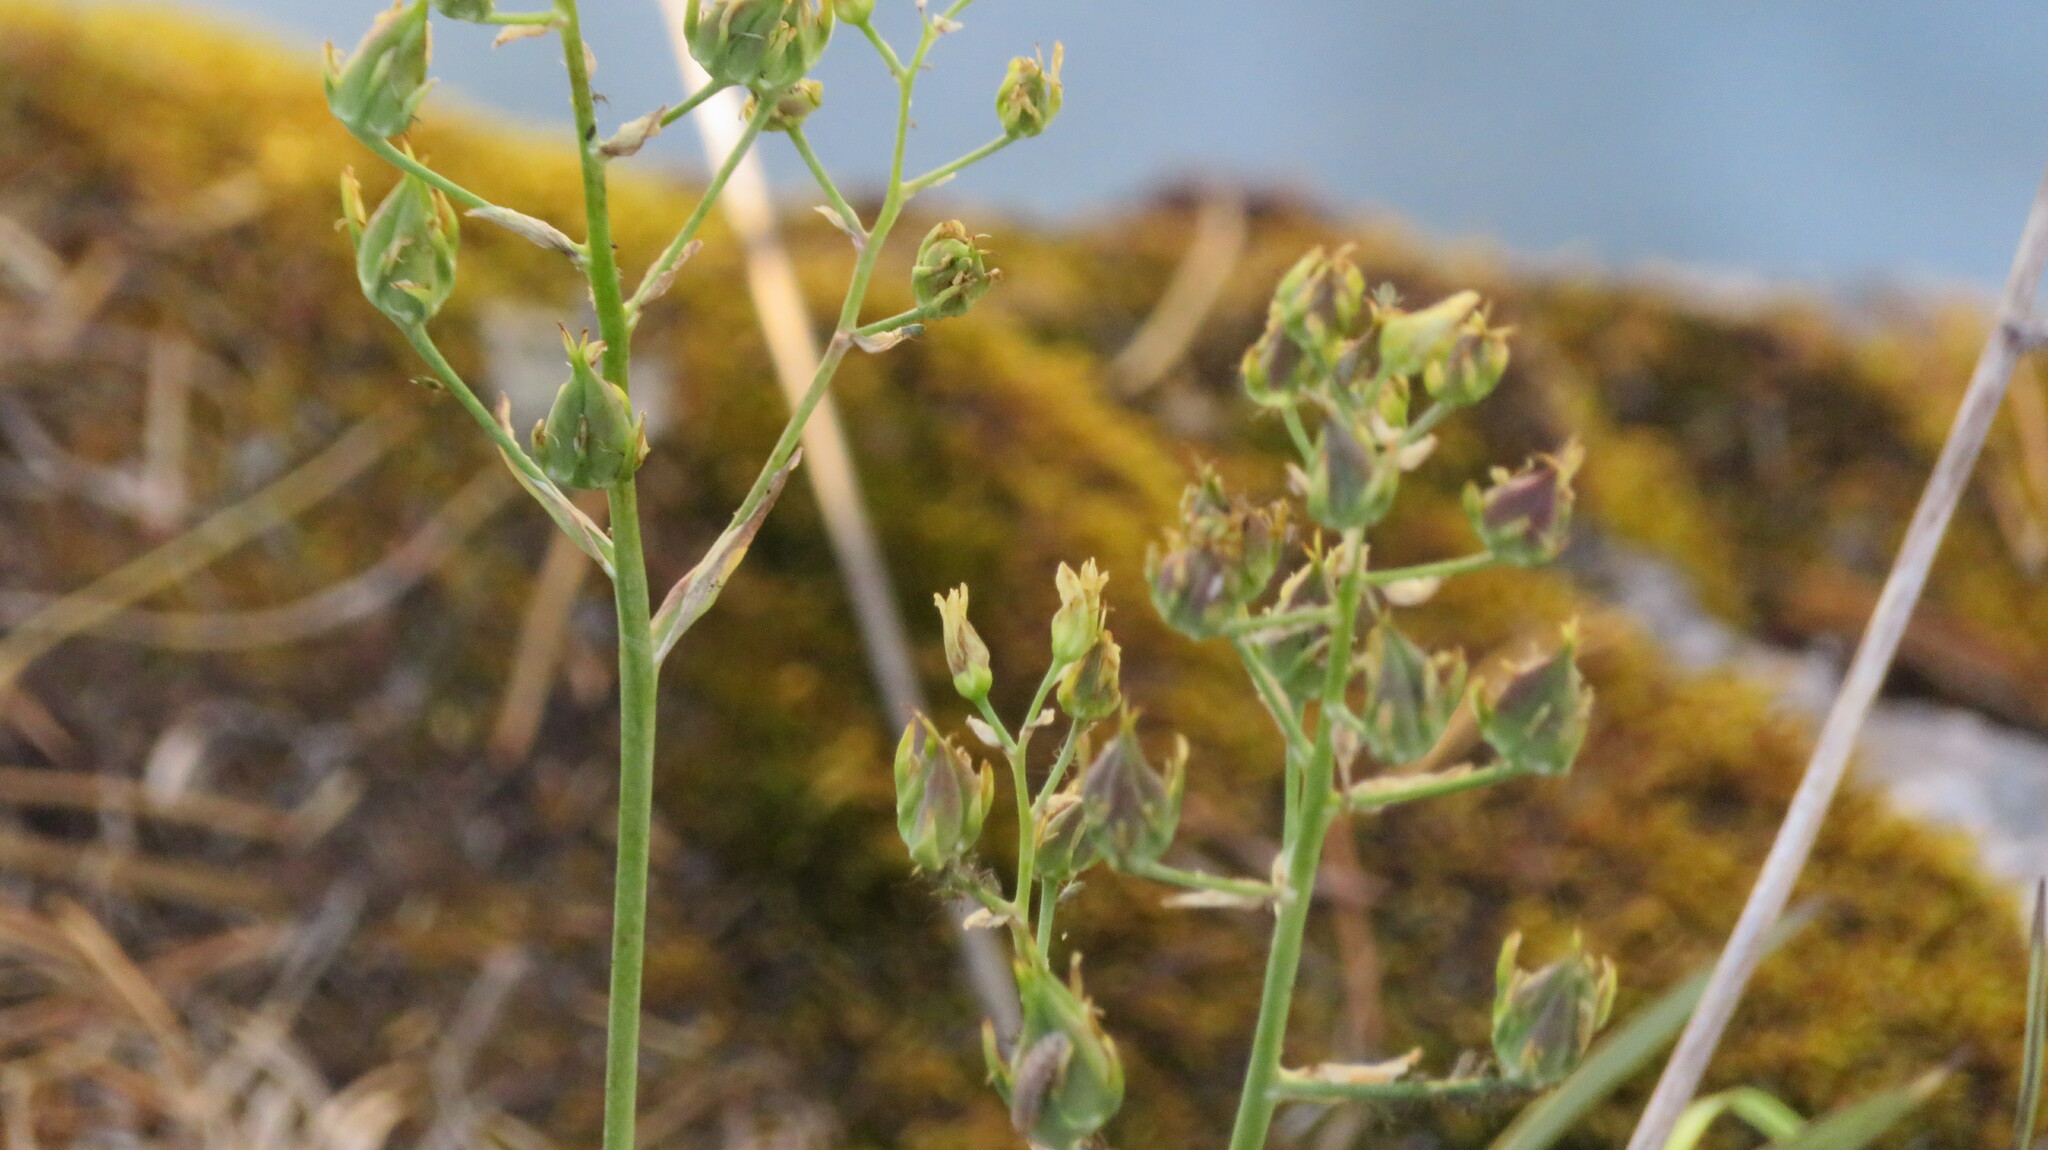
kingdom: Plantae
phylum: Tracheophyta
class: Liliopsida
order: Liliales
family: Melanthiaceae
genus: Anticlea
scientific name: Anticlea elegans
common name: Mountain death camas
